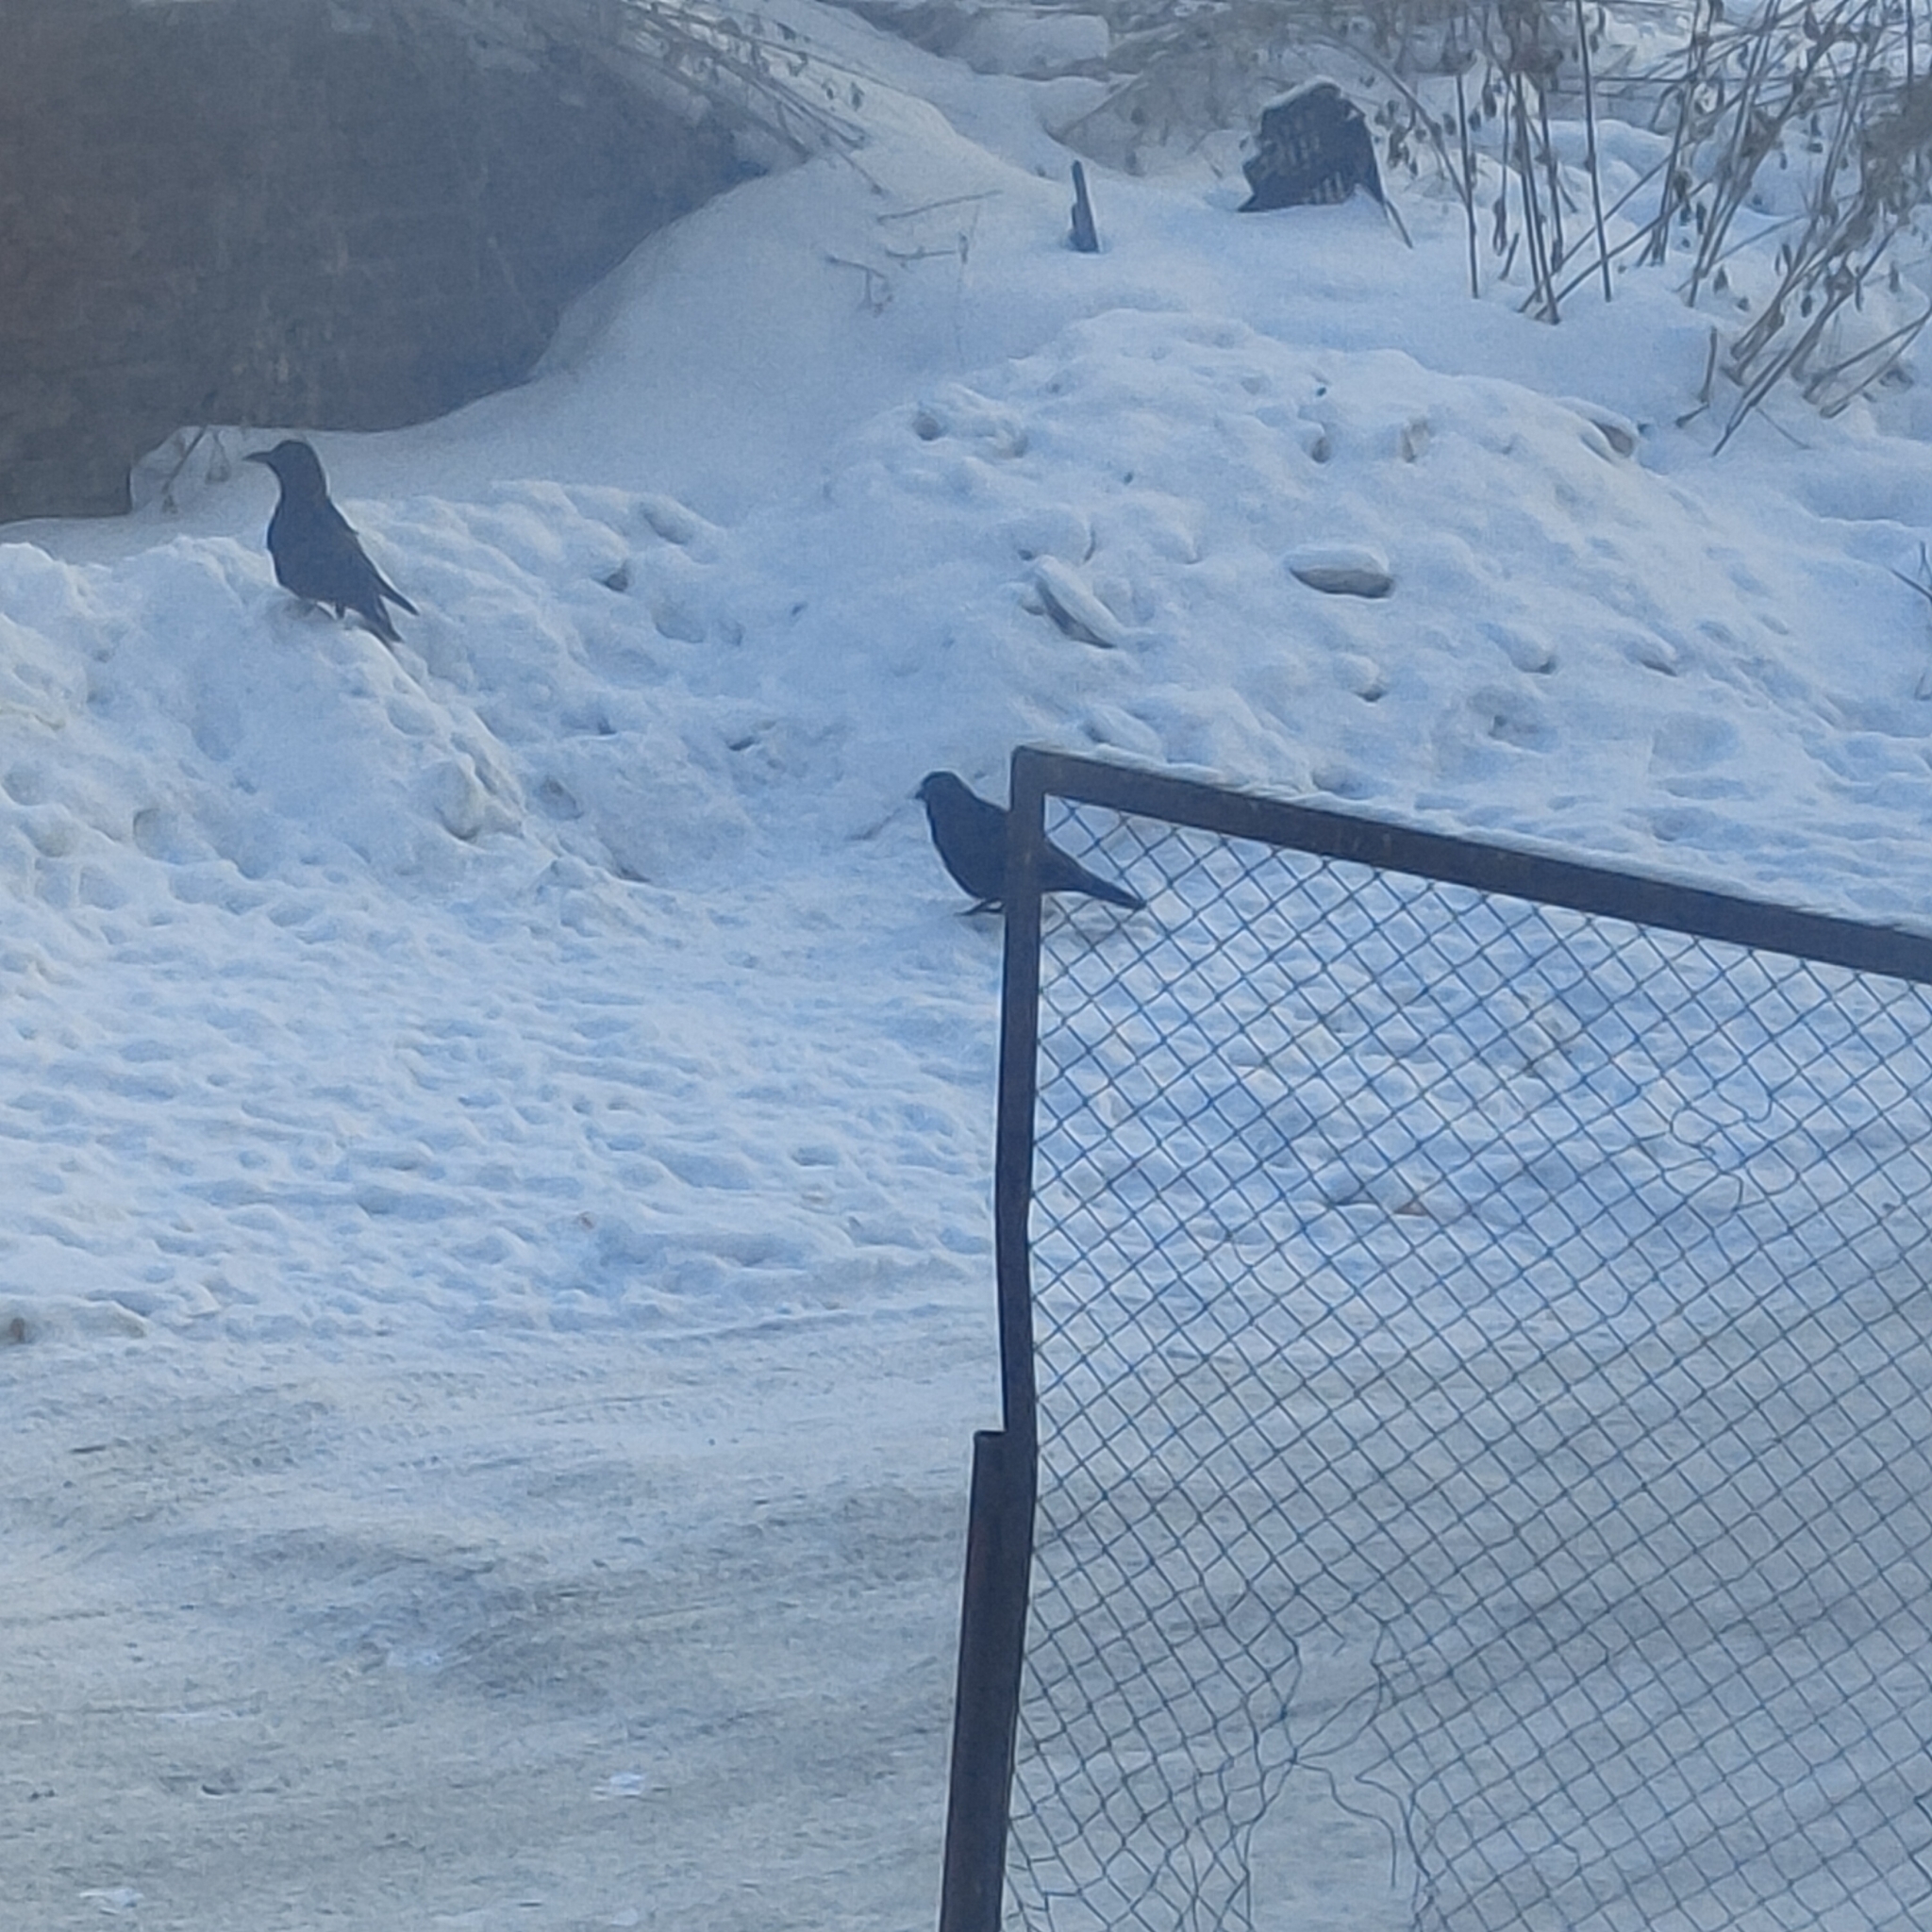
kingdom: Animalia
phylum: Chordata
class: Aves
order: Passeriformes
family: Corvidae
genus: Corvus
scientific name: Corvus corone
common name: Carrion crow
